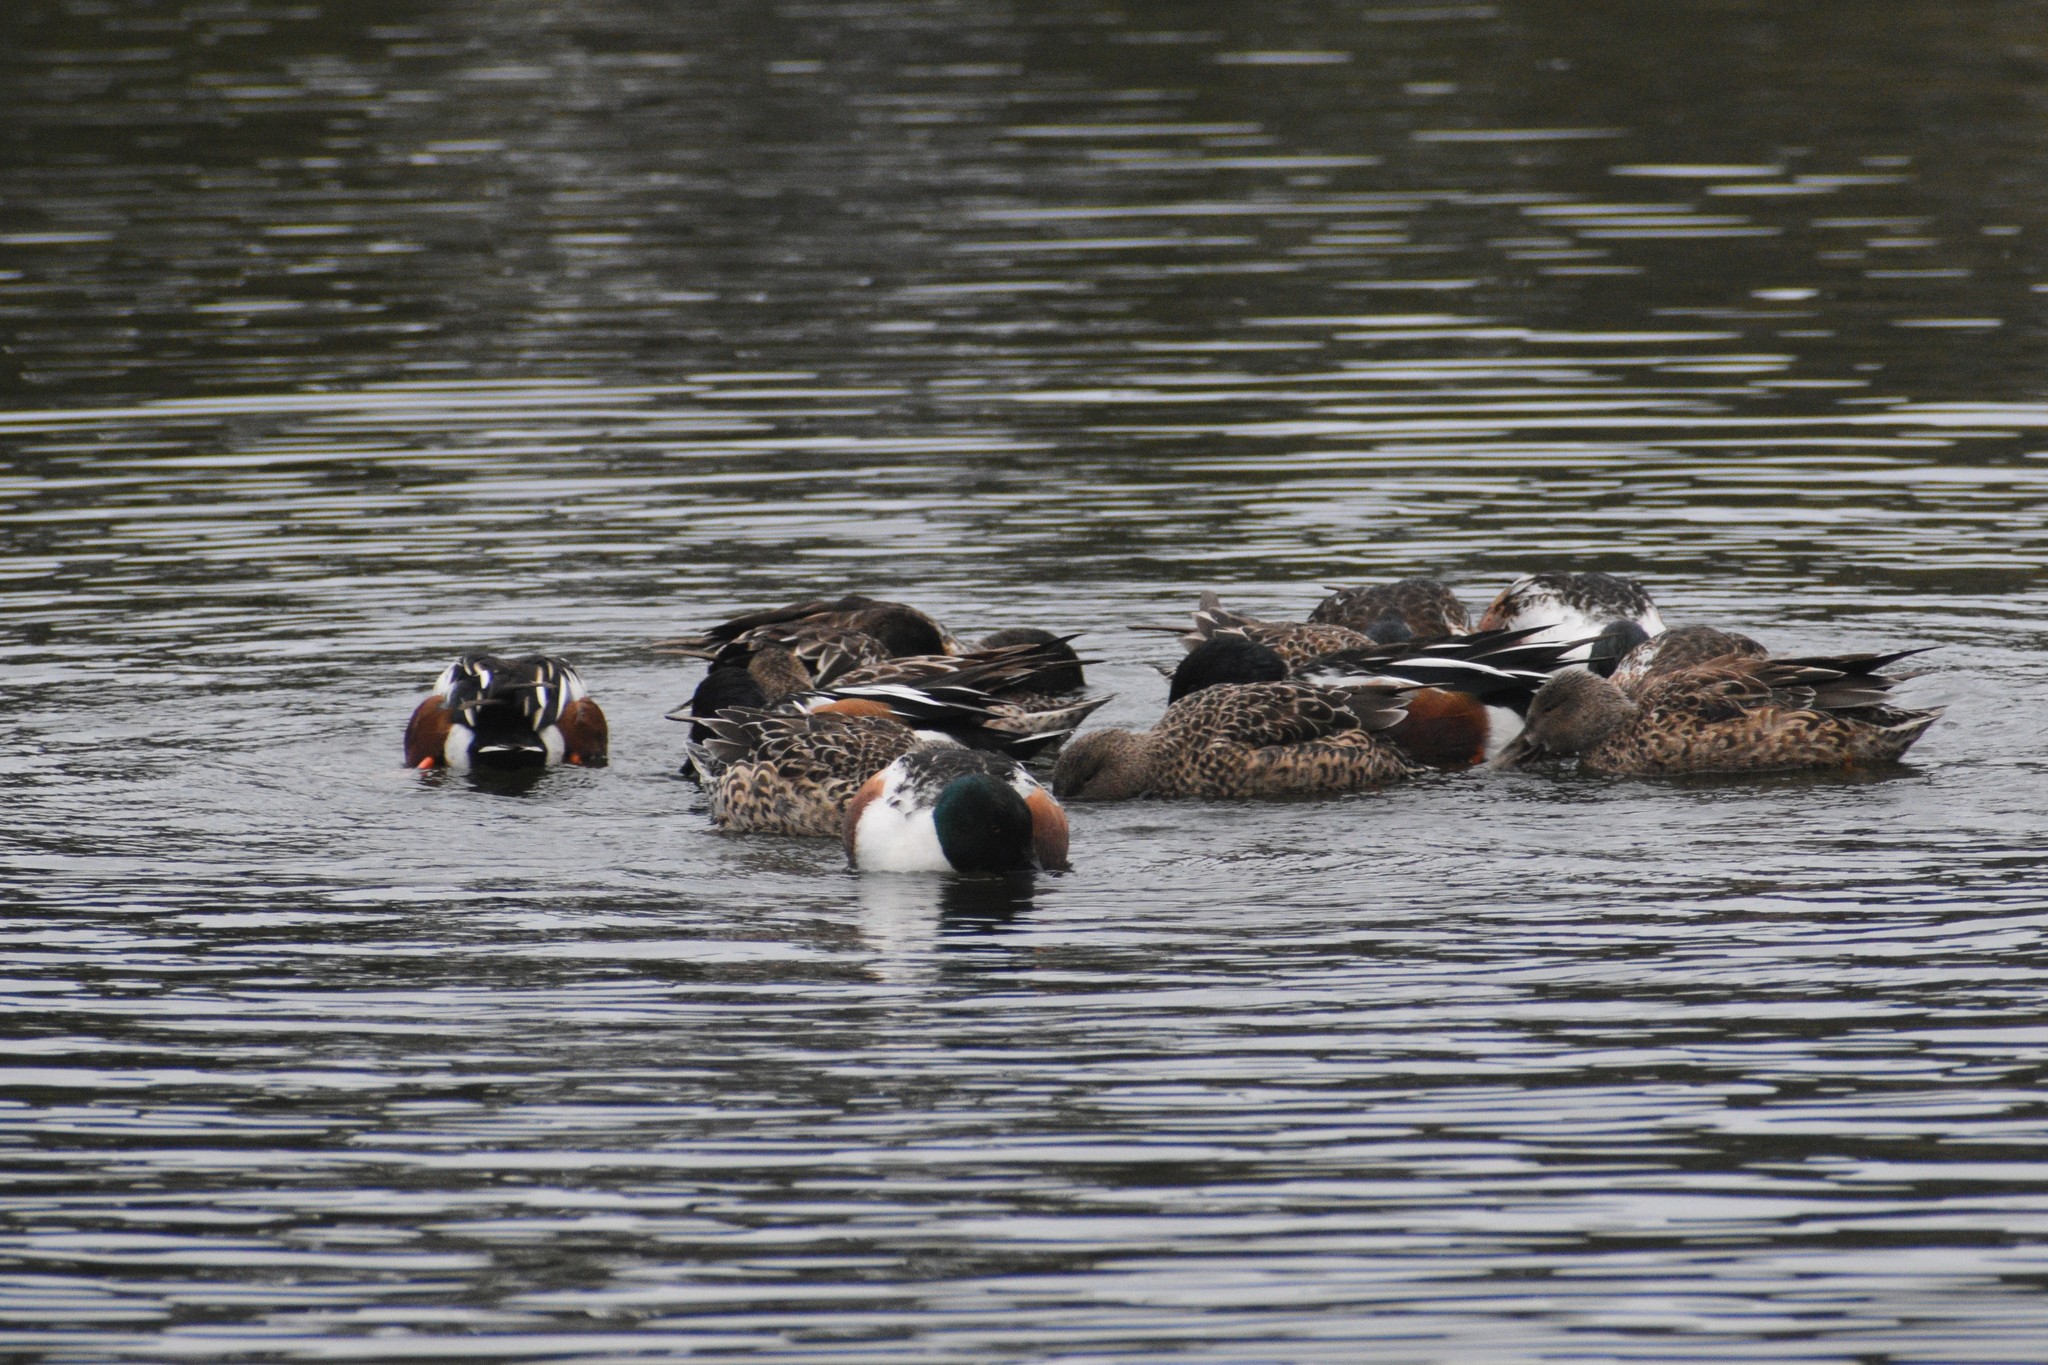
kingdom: Animalia
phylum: Chordata
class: Aves
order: Anseriformes
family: Anatidae
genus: Spatula
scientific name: Spatula clypeata
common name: Northern shoveler
